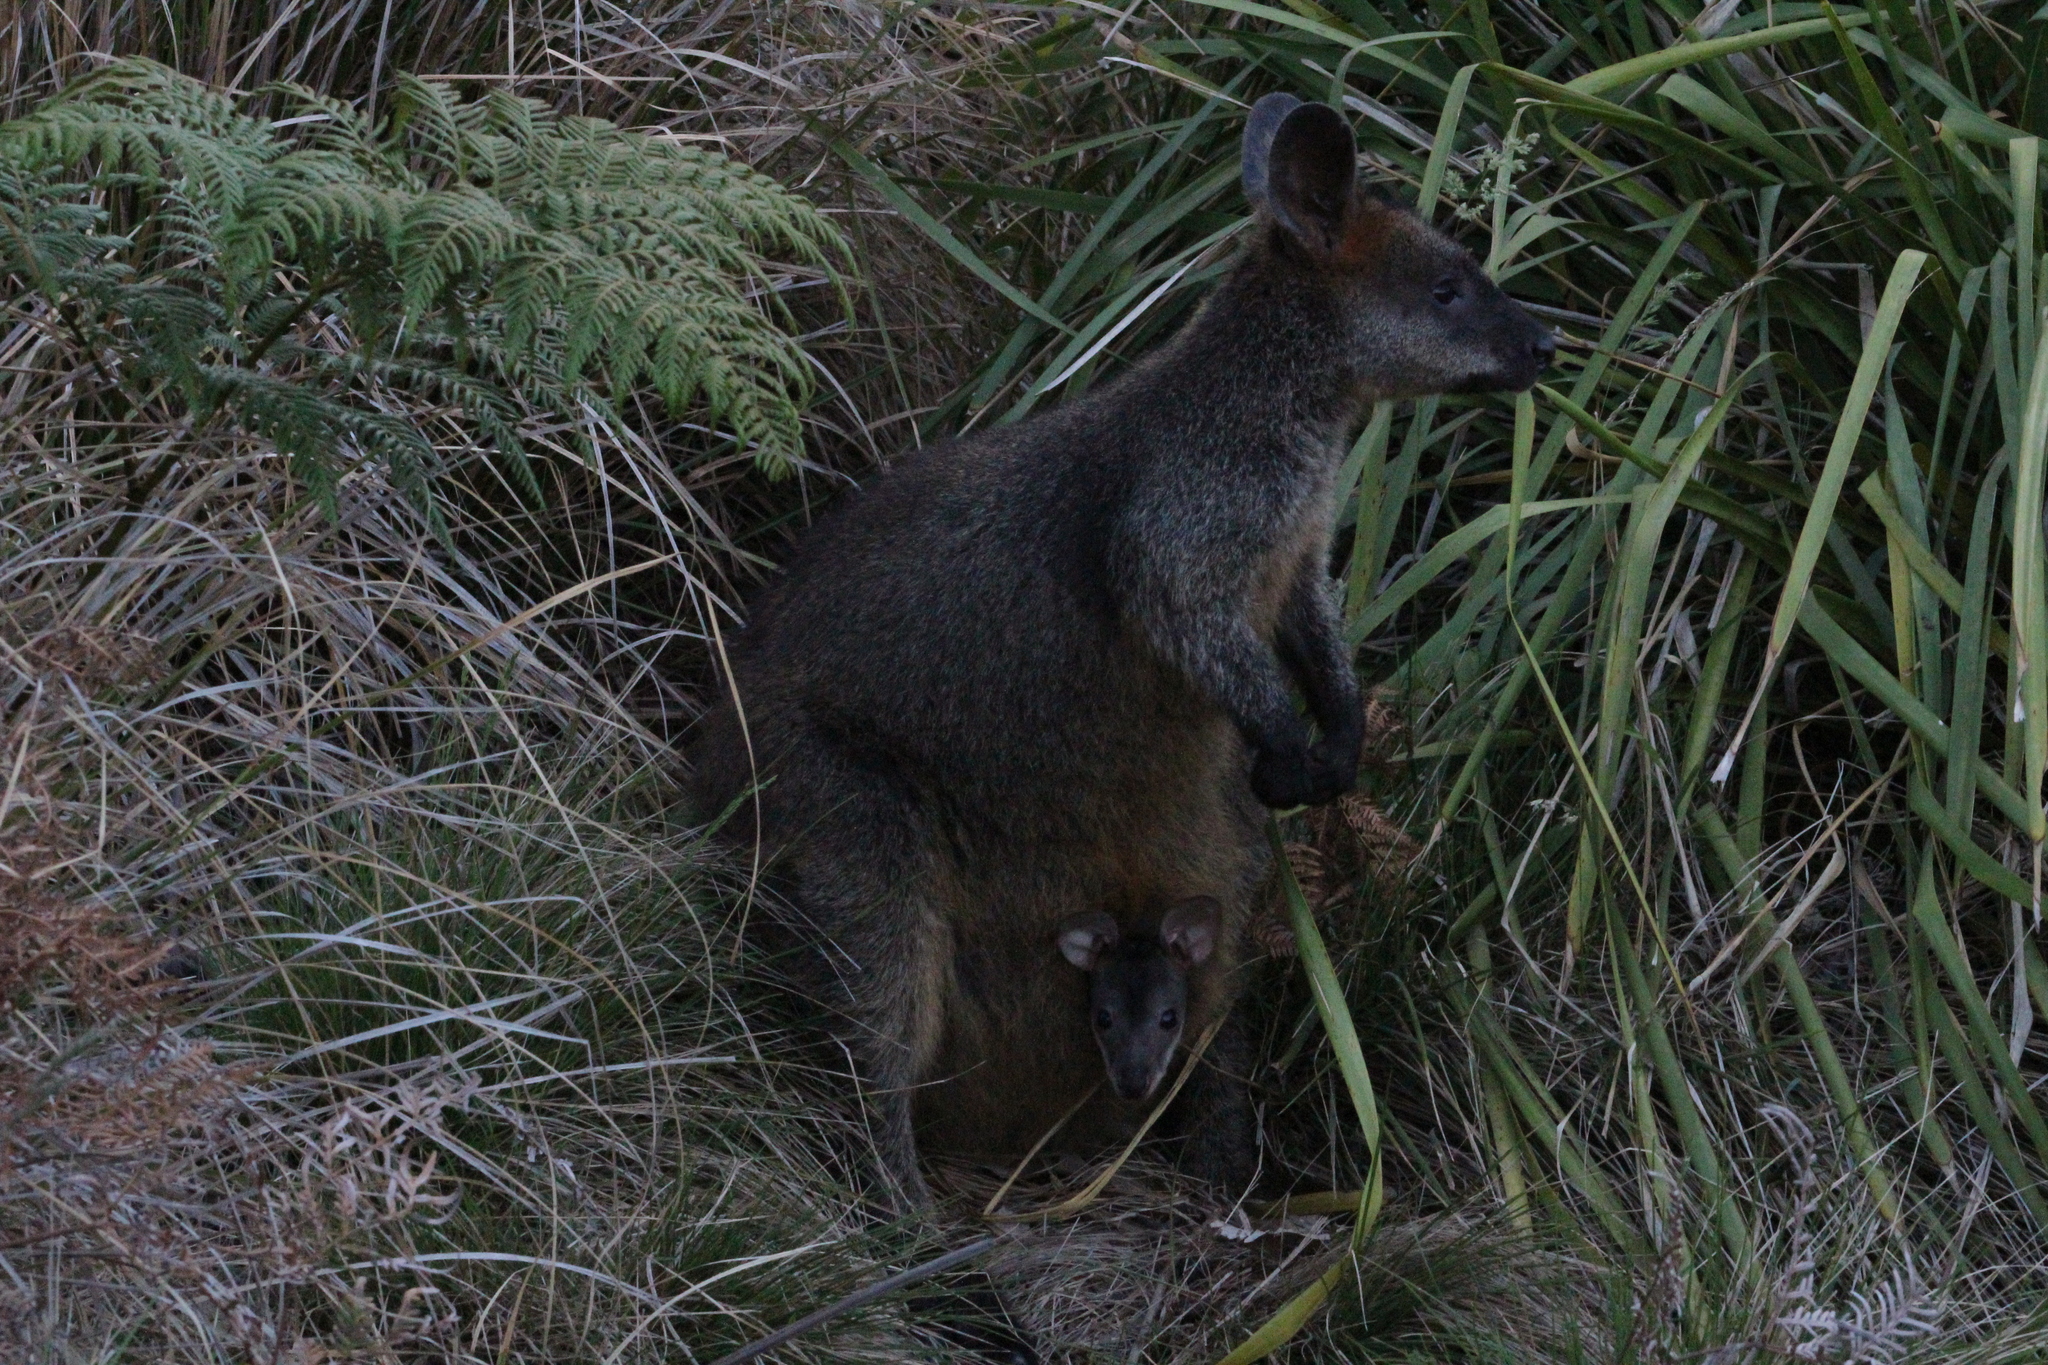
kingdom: Animalia
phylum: Chordata
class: Mammalia
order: Diprotodontia
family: Macropodidae
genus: Wallabia
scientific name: Wallabia bicolor
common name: Swamp wallaby
